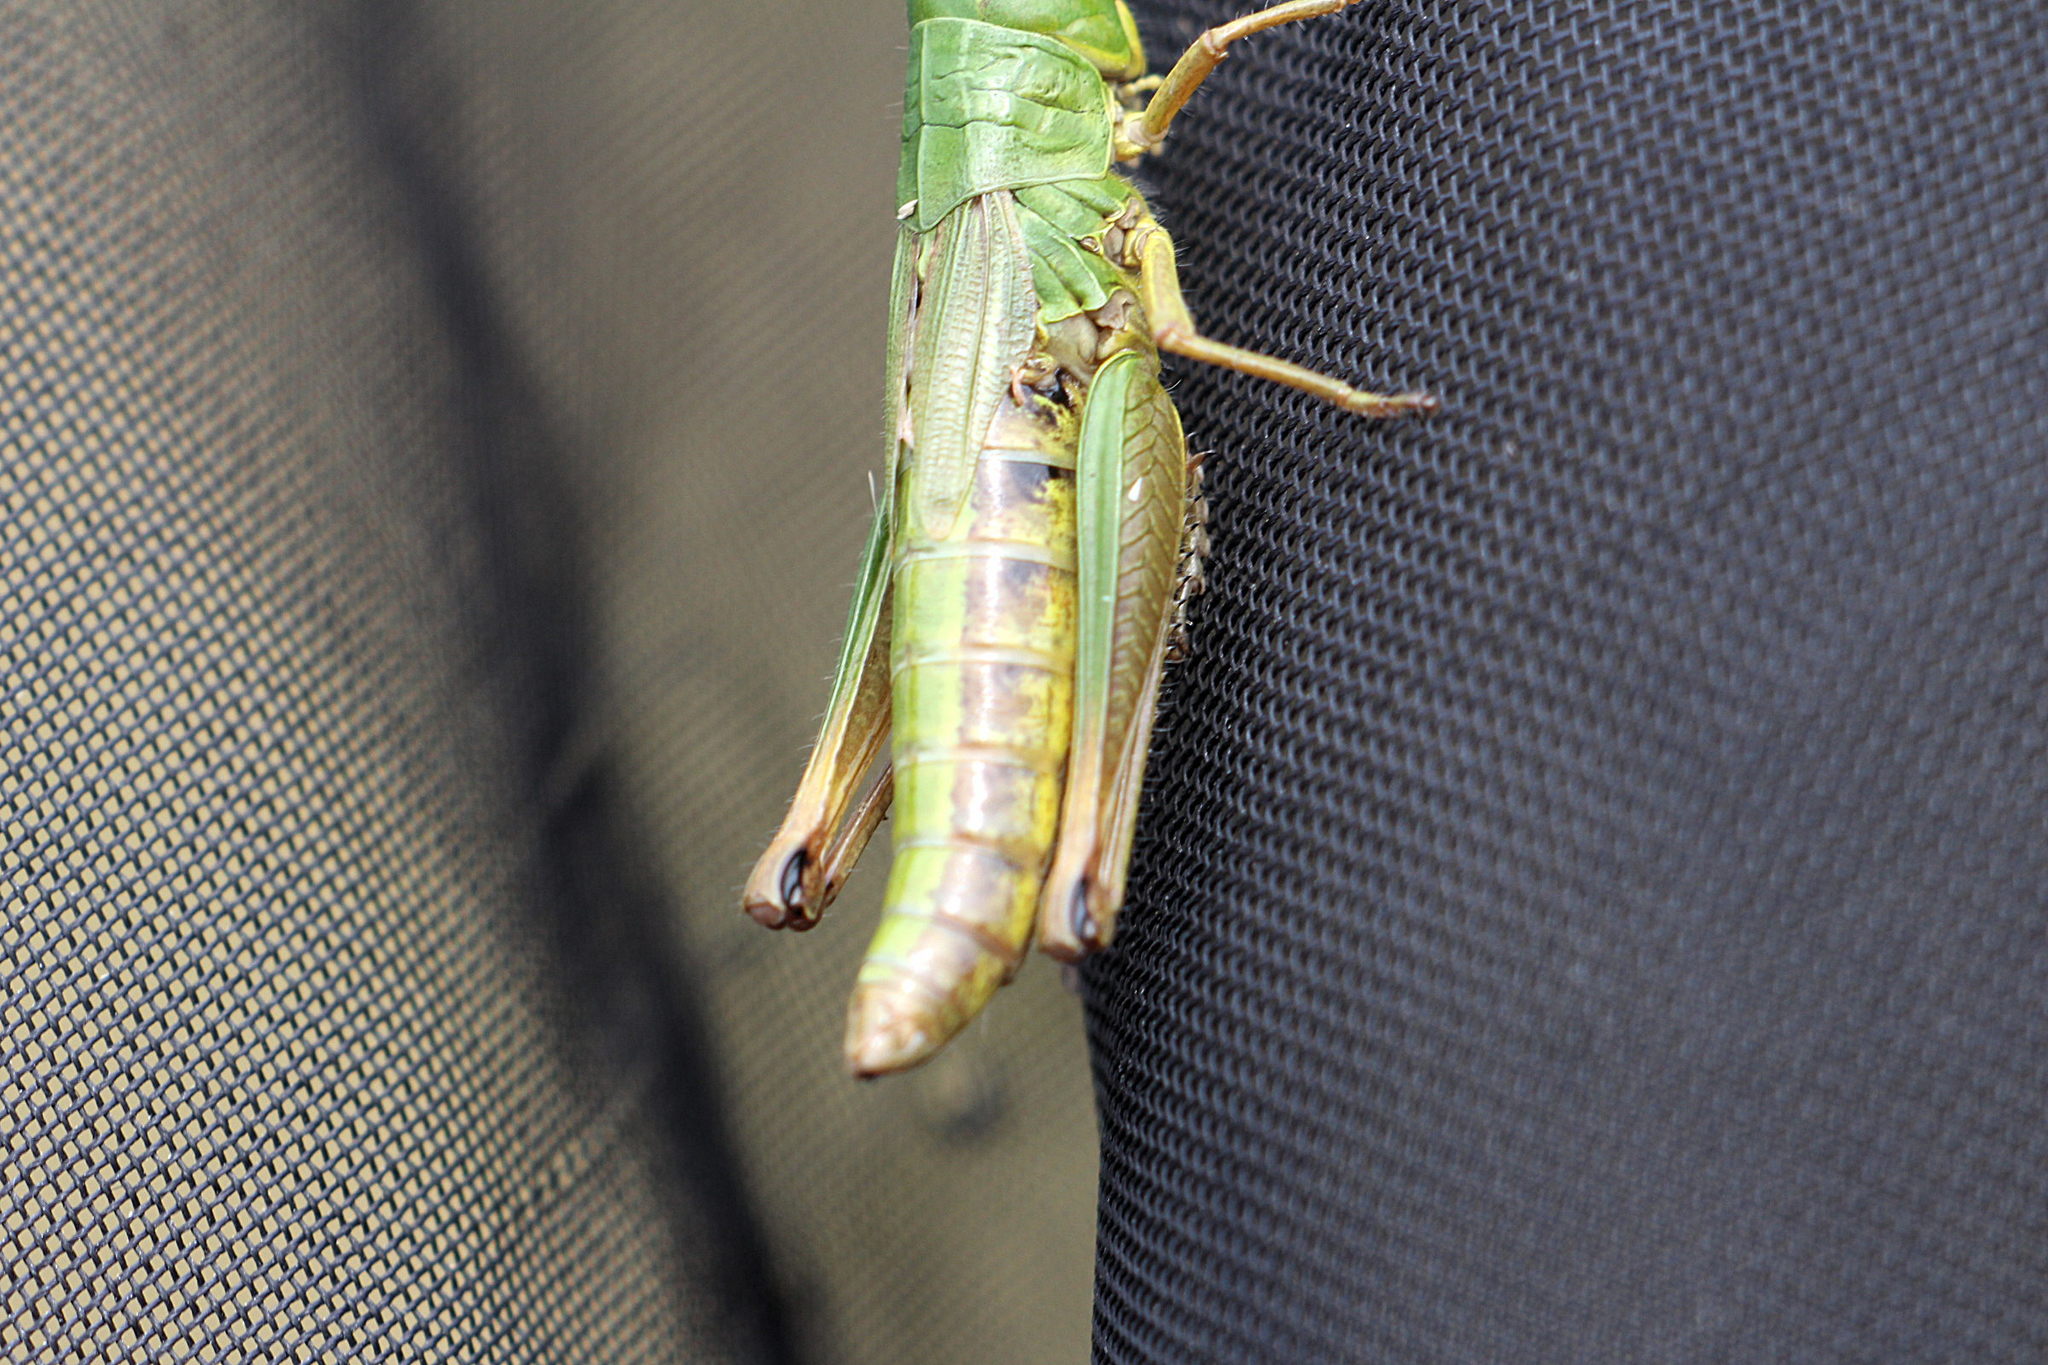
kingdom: Animalia
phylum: Arthropoda
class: Insecta
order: Orthoptera
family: Acrididae
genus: Pseudochorthippus
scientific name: Pseudochorthippus parallelus
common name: Meadow grasshopper
